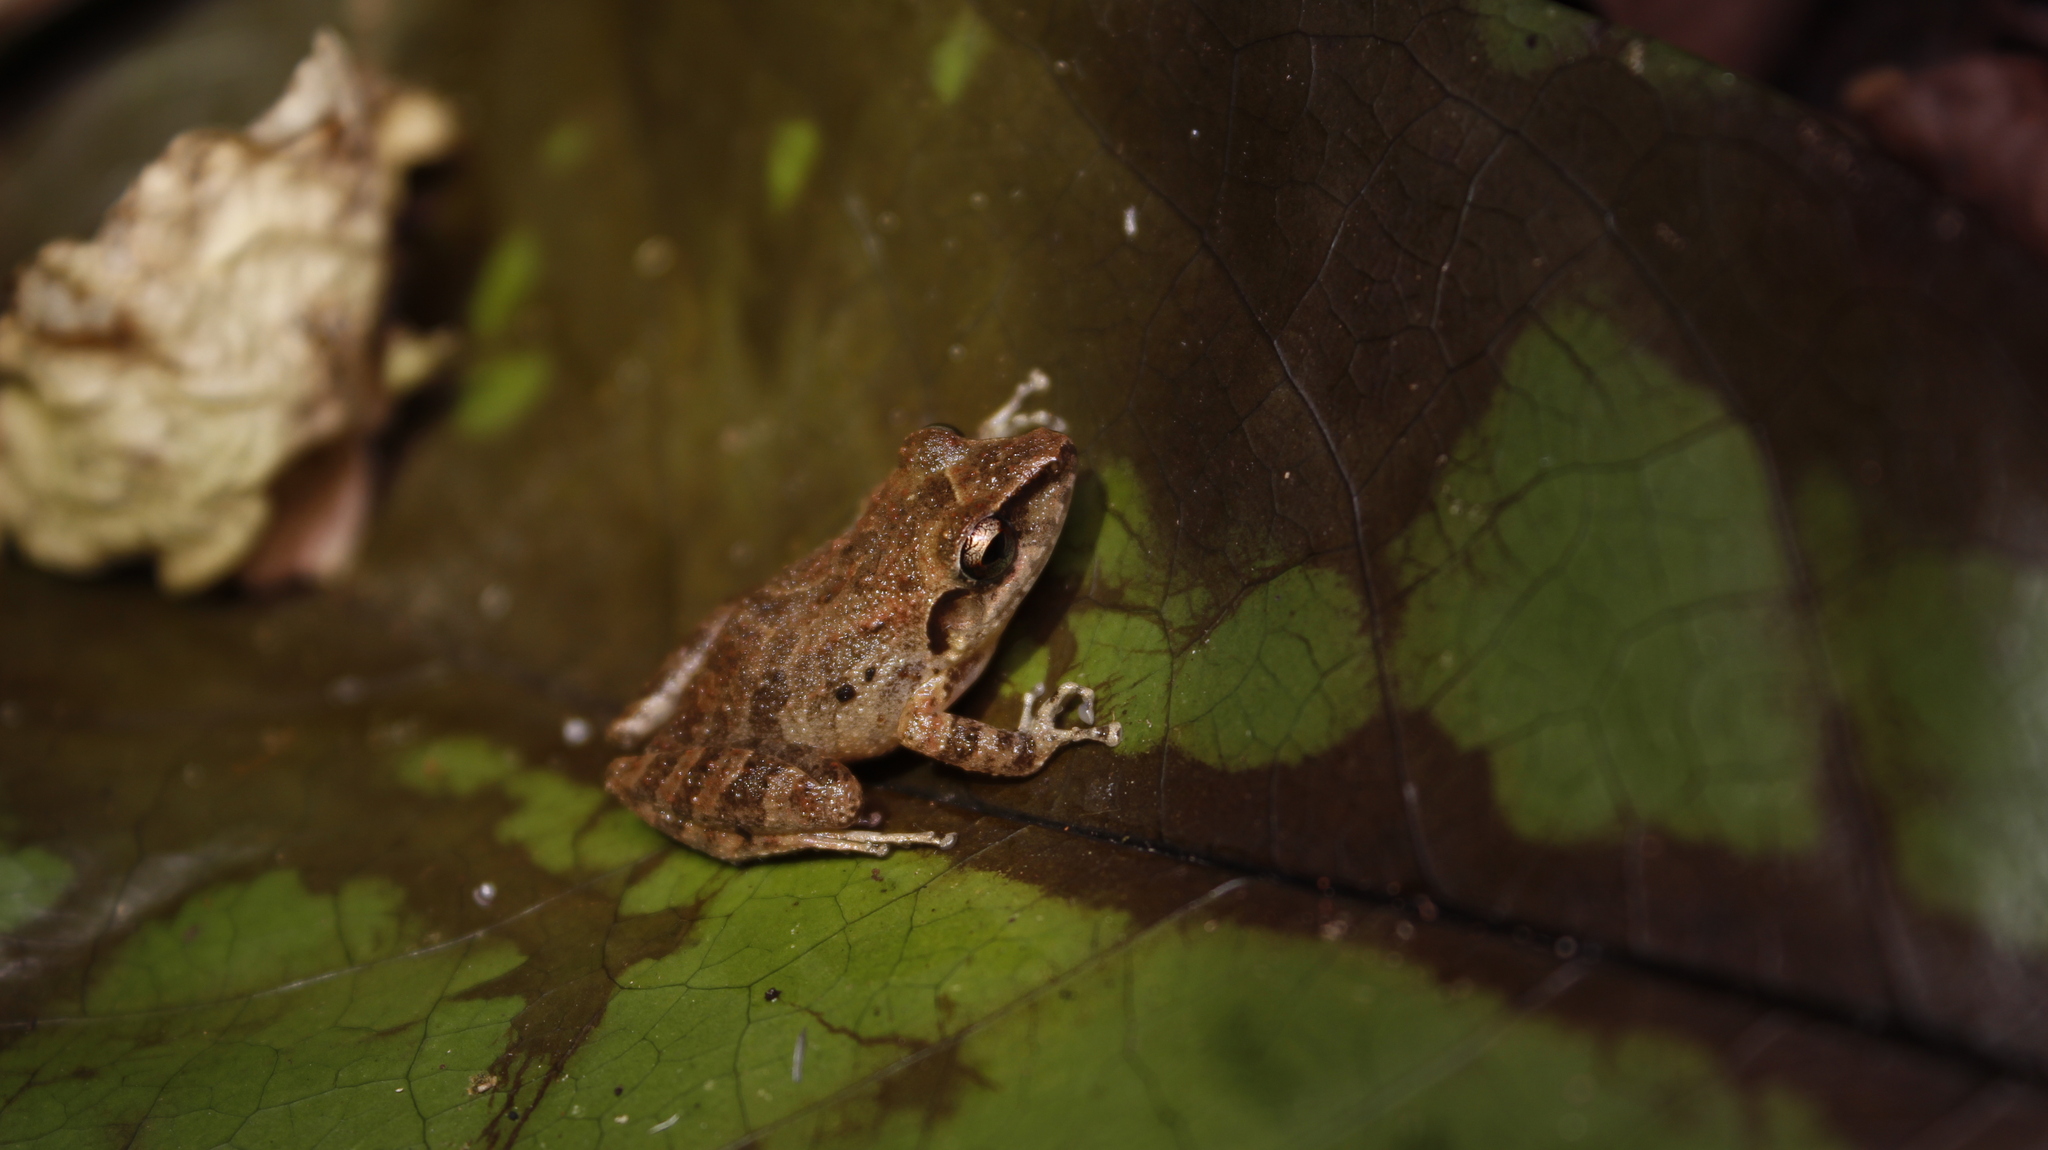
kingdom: Animalia
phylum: Chordata
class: Amphibia
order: Anura
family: Craugastoridae
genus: Pristimantis
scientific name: Pristimantis ramagii
